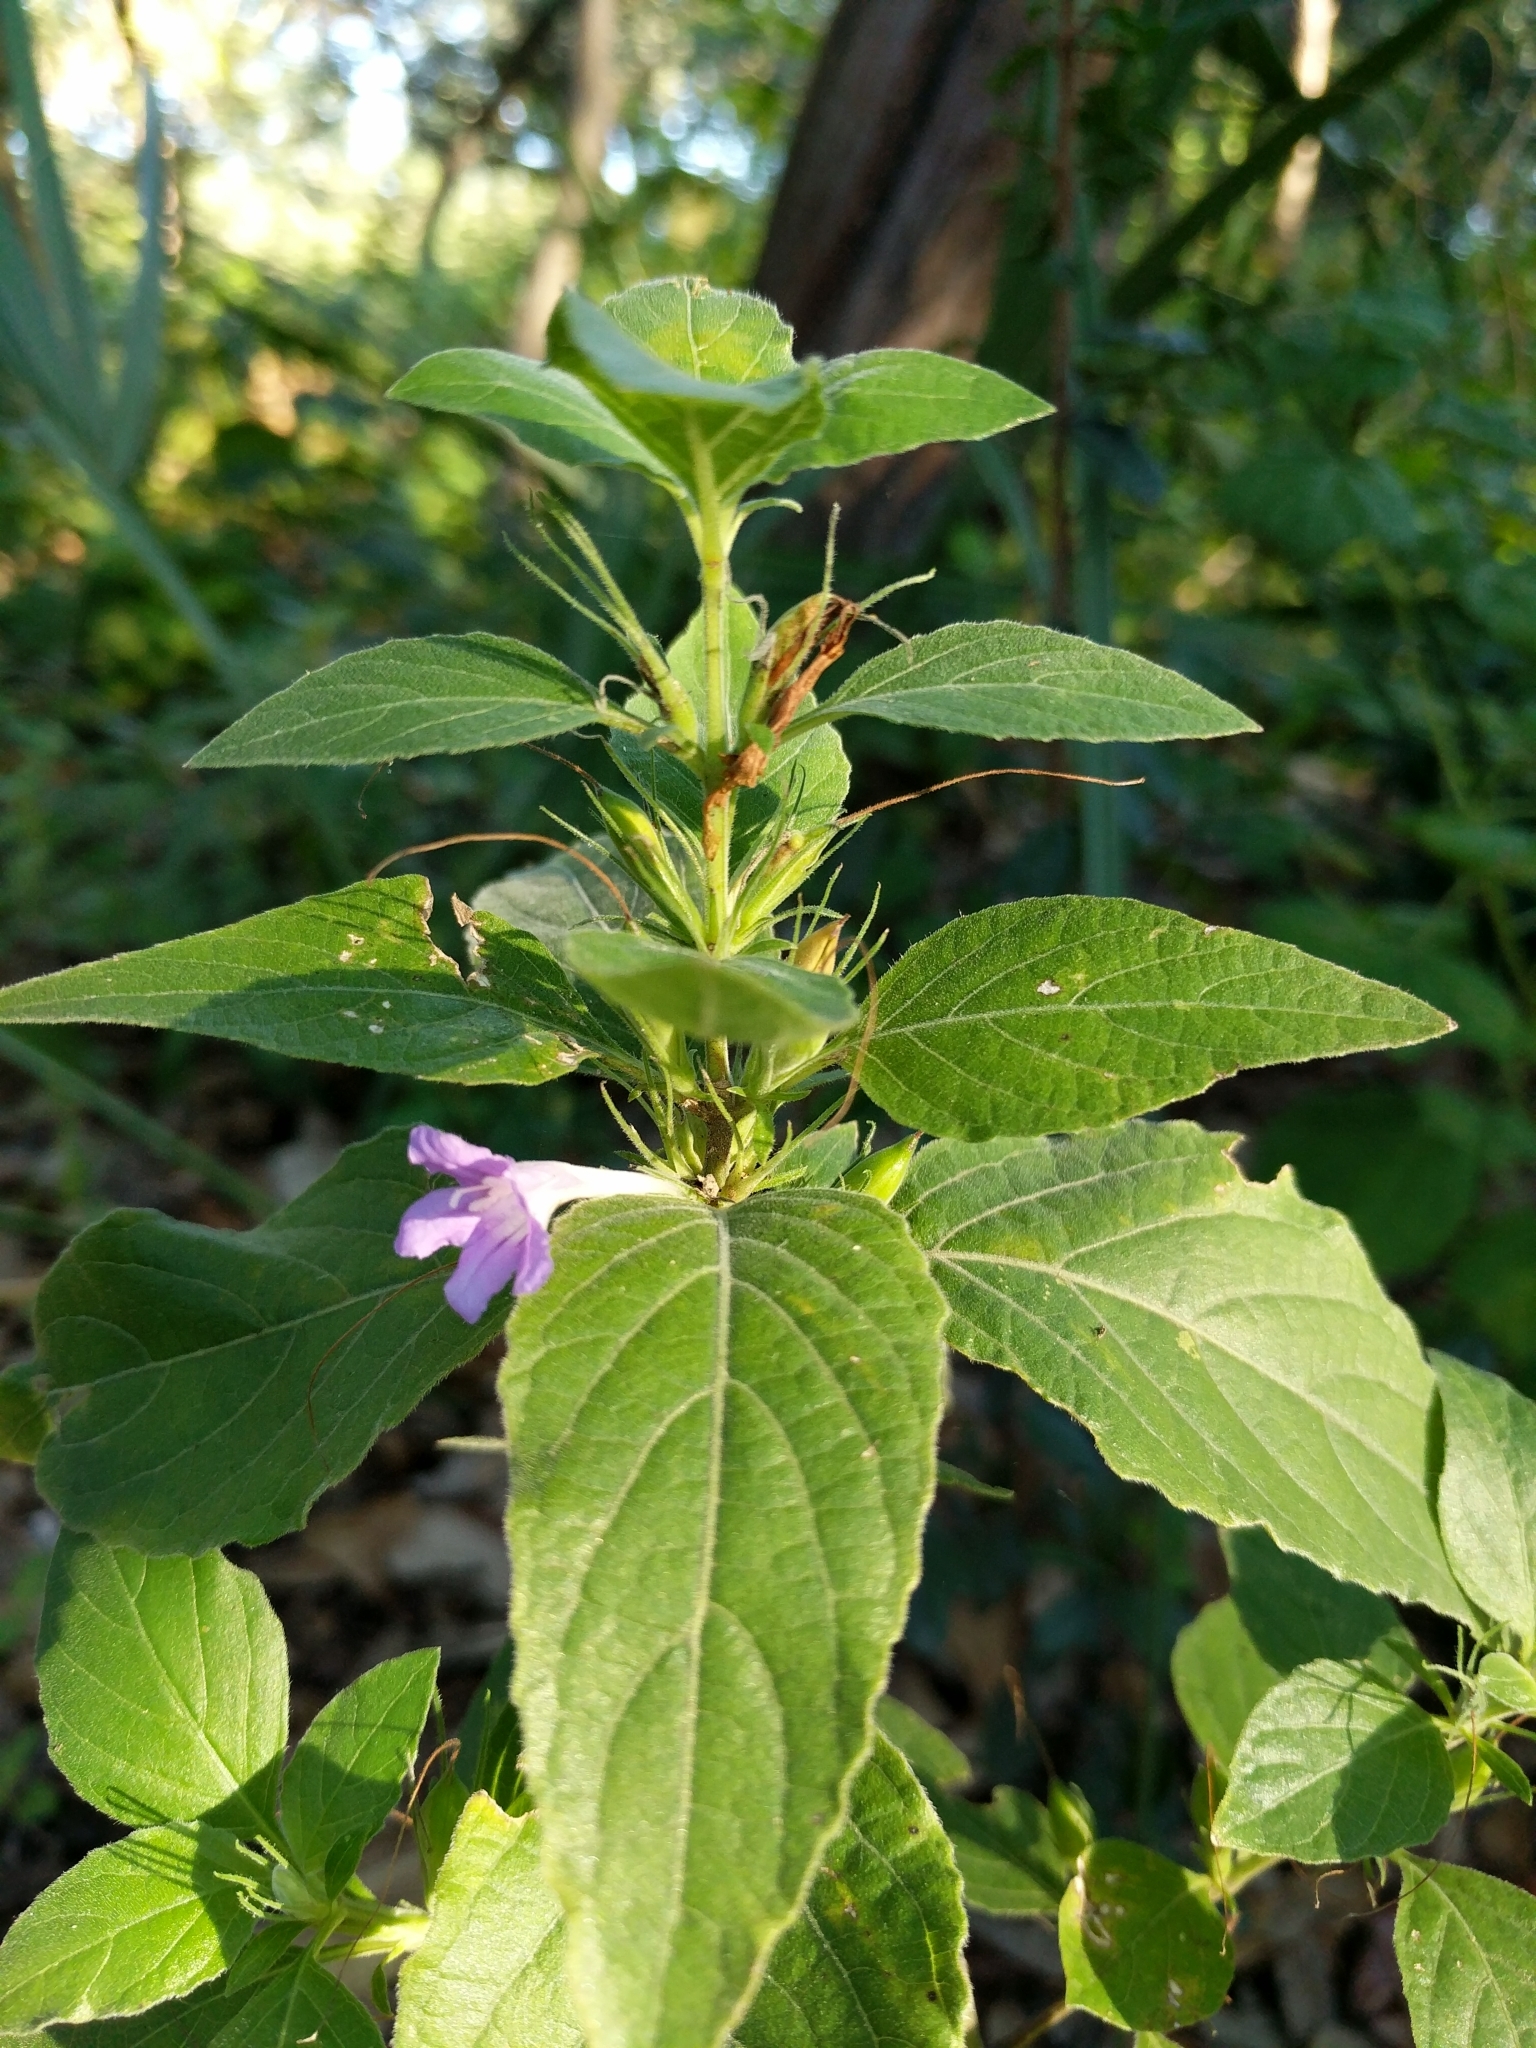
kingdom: Plantae
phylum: Tracheophyta
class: Magnoliopsida
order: Lamiales
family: Acanthaceae
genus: Ruellia
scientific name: Ruellia drummondiana
